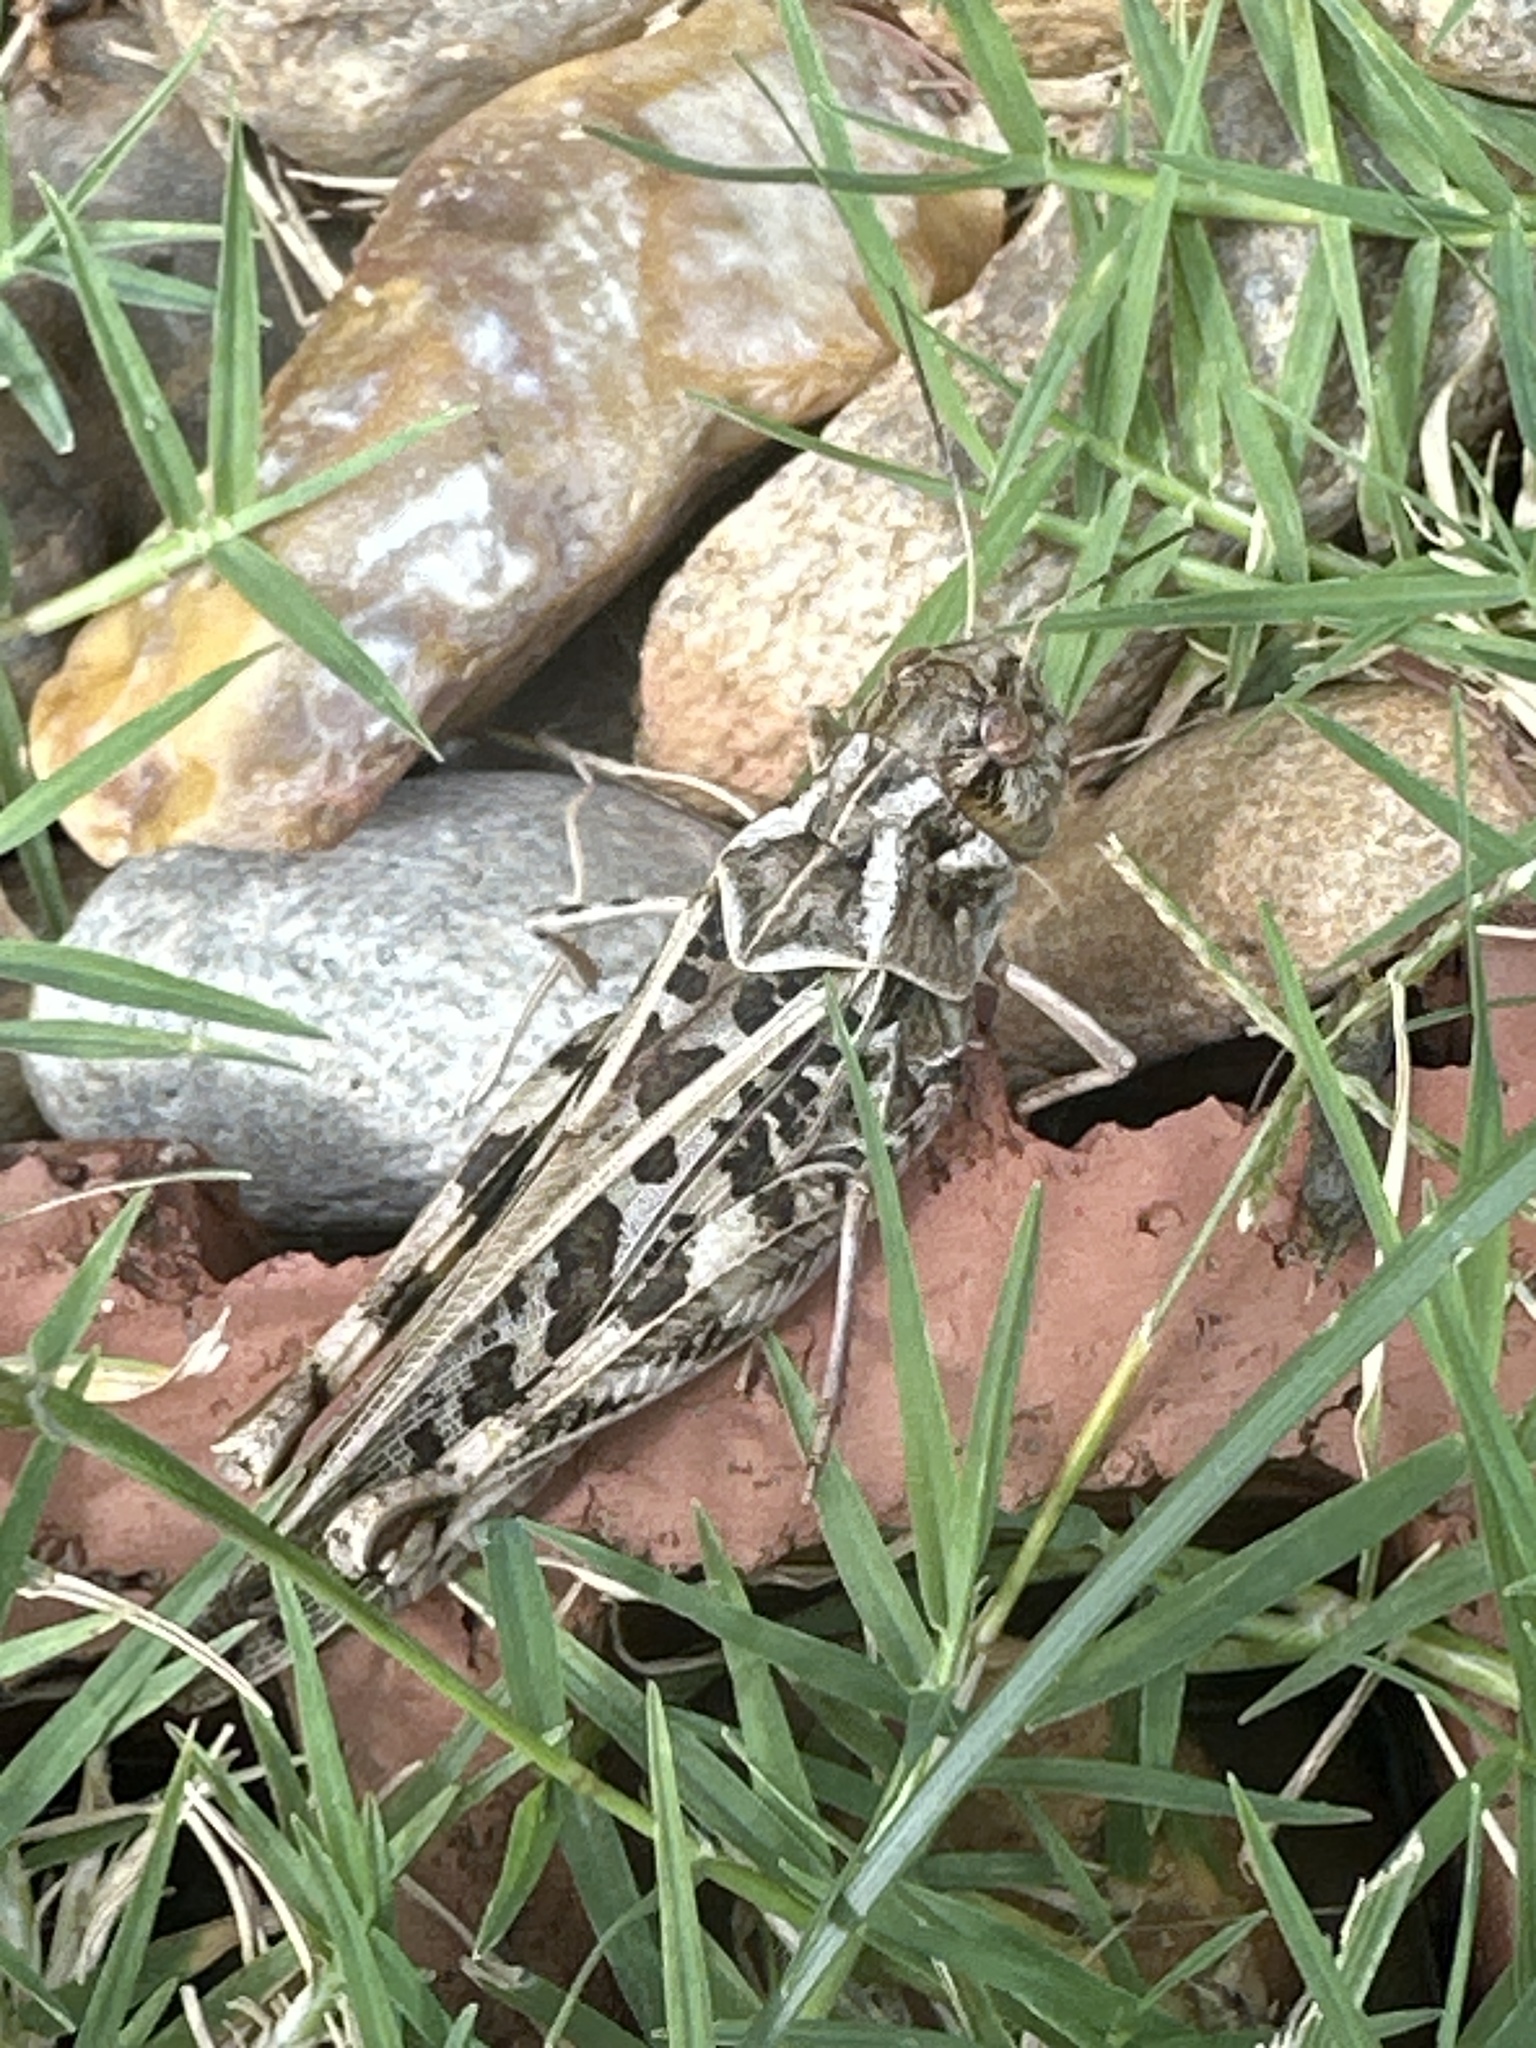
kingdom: Animalia
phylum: Arthropoda
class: Insecta
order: Orthoptera
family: Acrididae
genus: Hippiscus
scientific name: Hippiscus ocelote
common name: Wrinkled grasshopper
